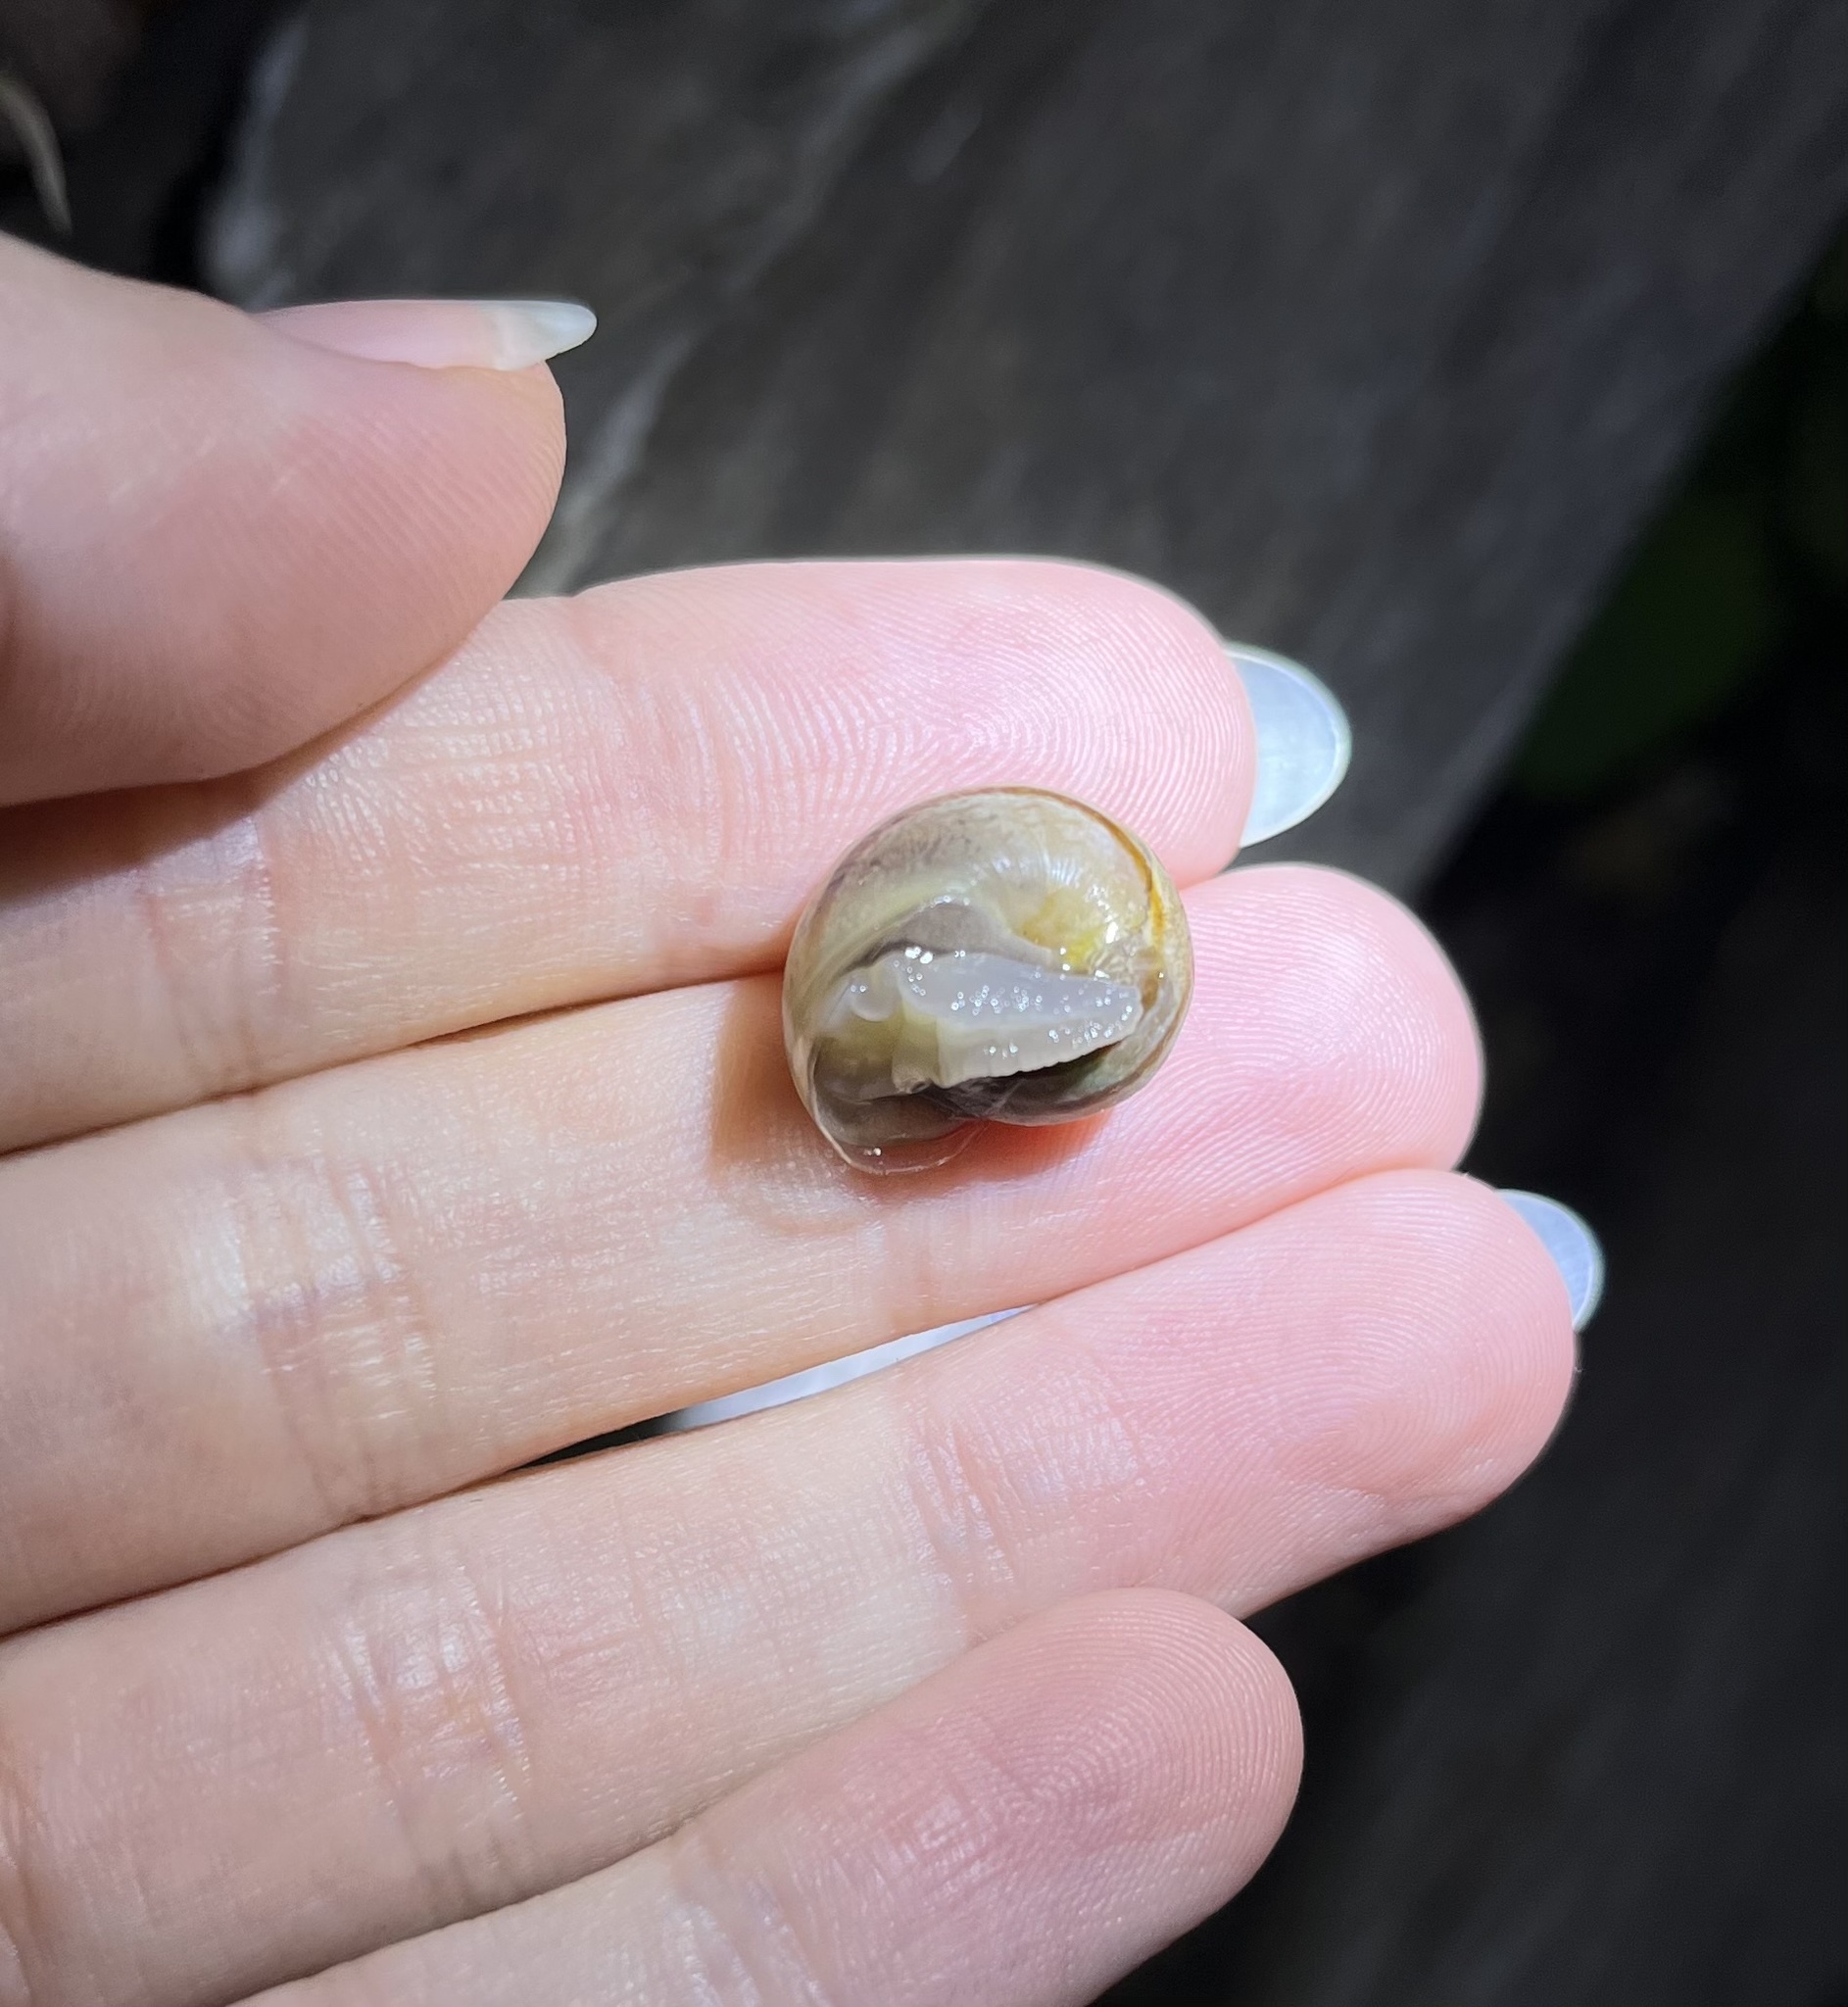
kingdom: Animalia
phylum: Mollusca
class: Gastropoda
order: Stylommatophora
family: Helicidae
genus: Otala
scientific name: Otala lactea
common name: Milk snail
